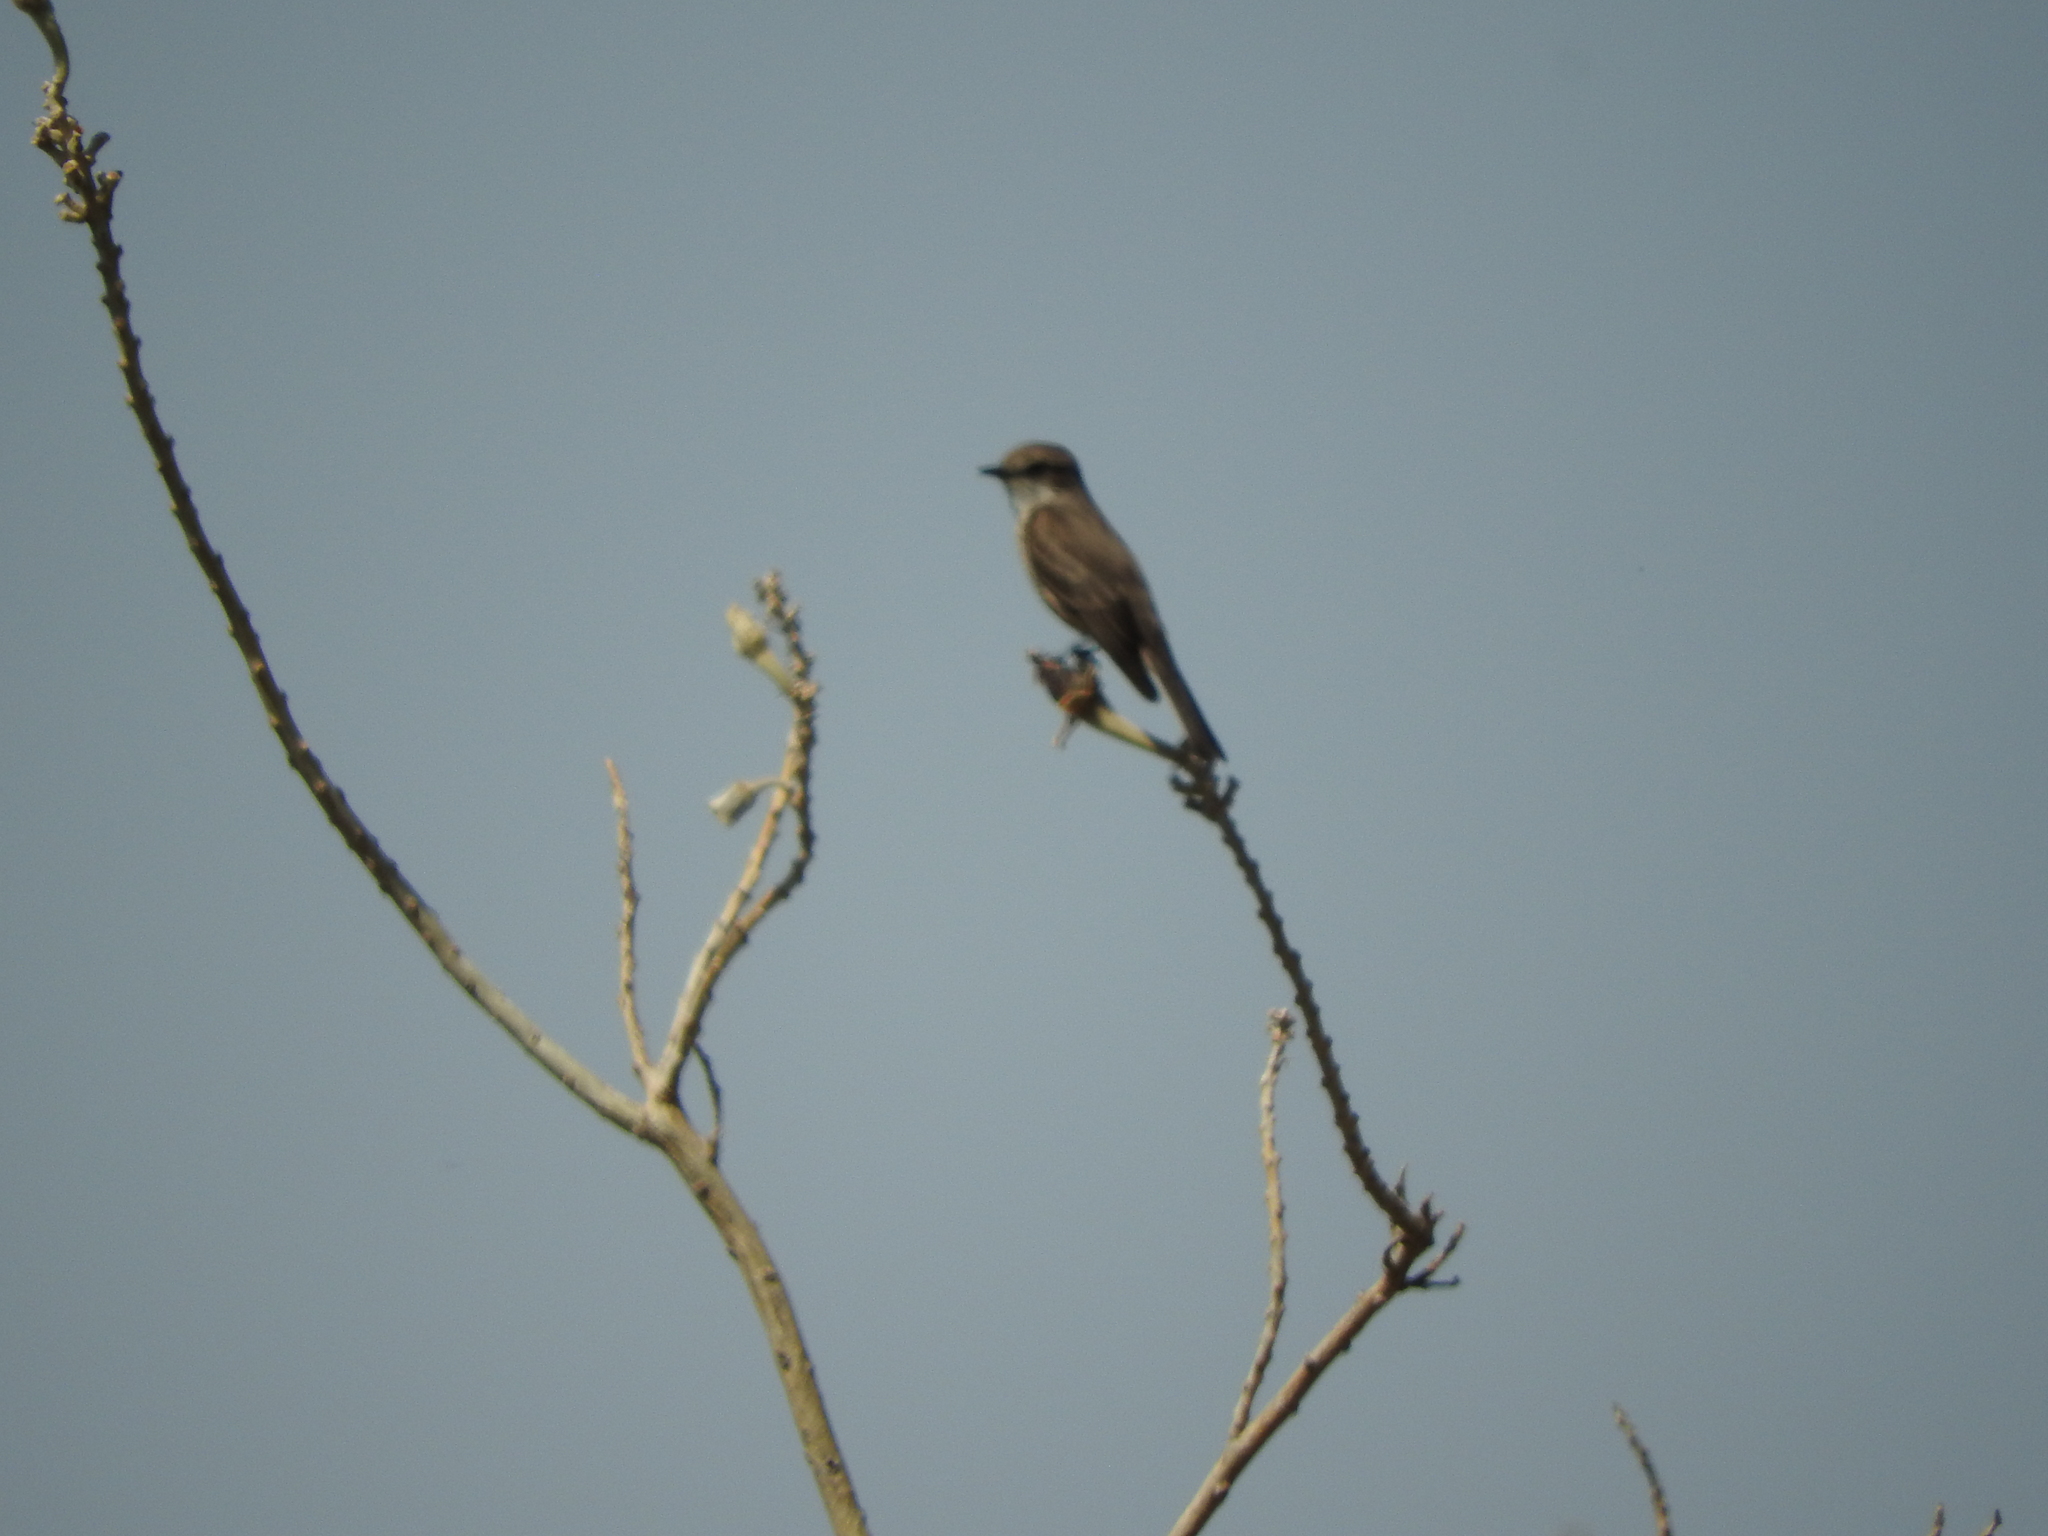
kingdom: Animalia
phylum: Chordata
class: Aves
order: Passeriformes
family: Tyrannidae
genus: Pyrocephalus
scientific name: Pyrocephalus rubinus
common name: Vermilion flycatcher
